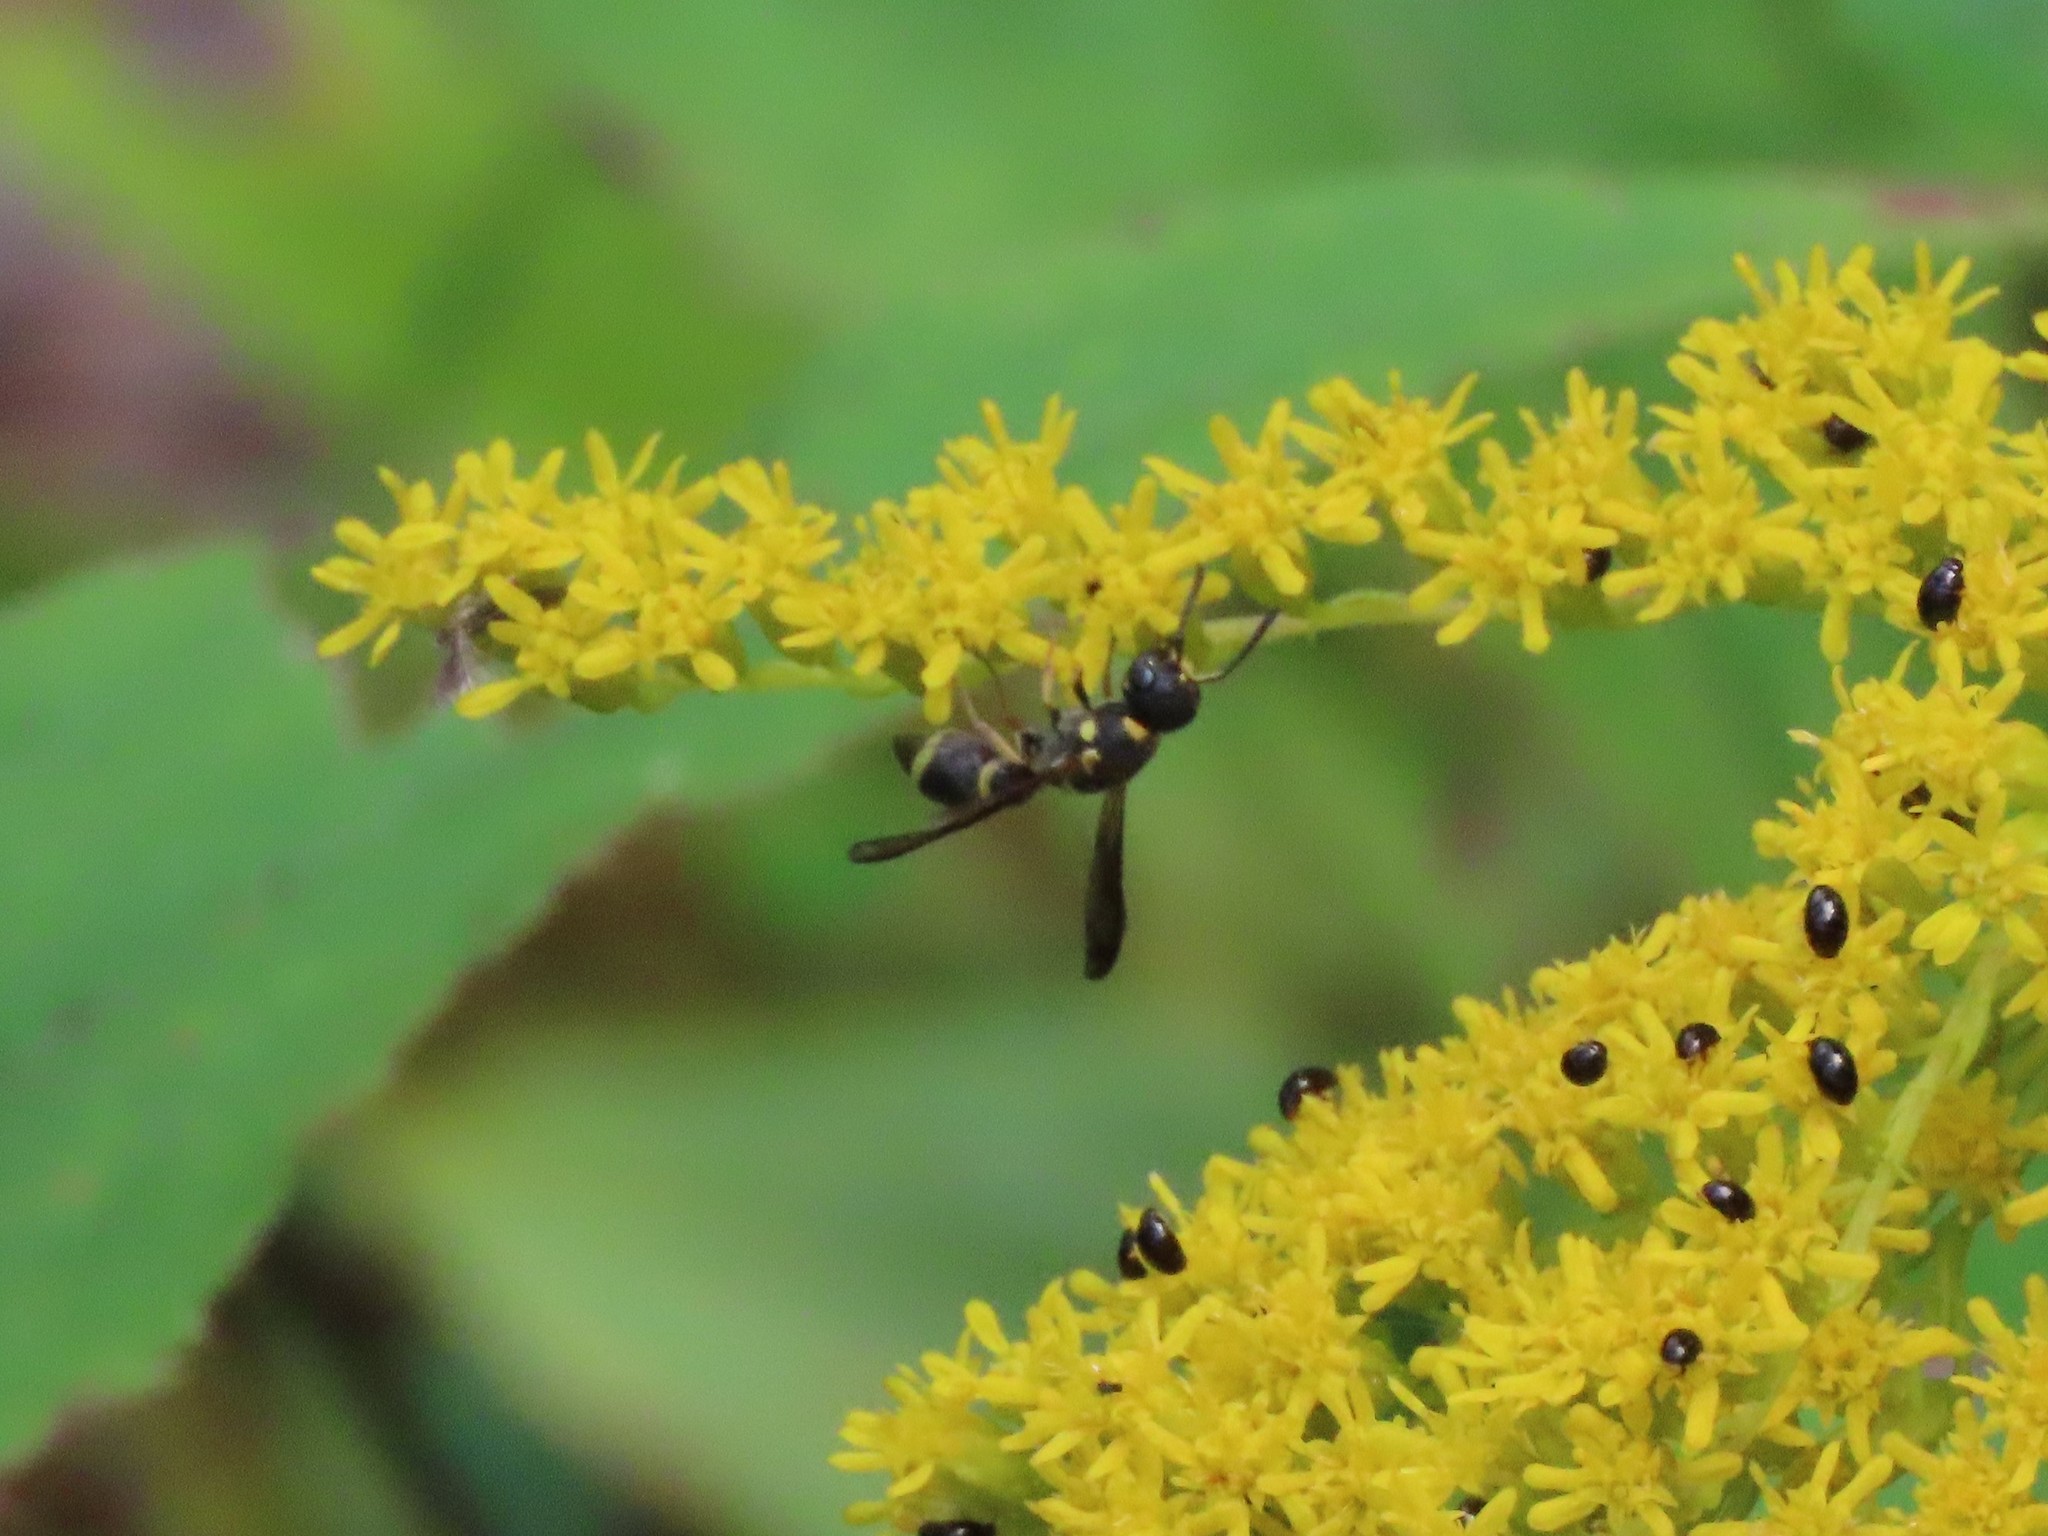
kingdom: Animalia
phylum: Arthropoda
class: Insecta
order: Hymenoptera
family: Eumenidae
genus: Parancistrocerus
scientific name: Parancistrocerus perennis
